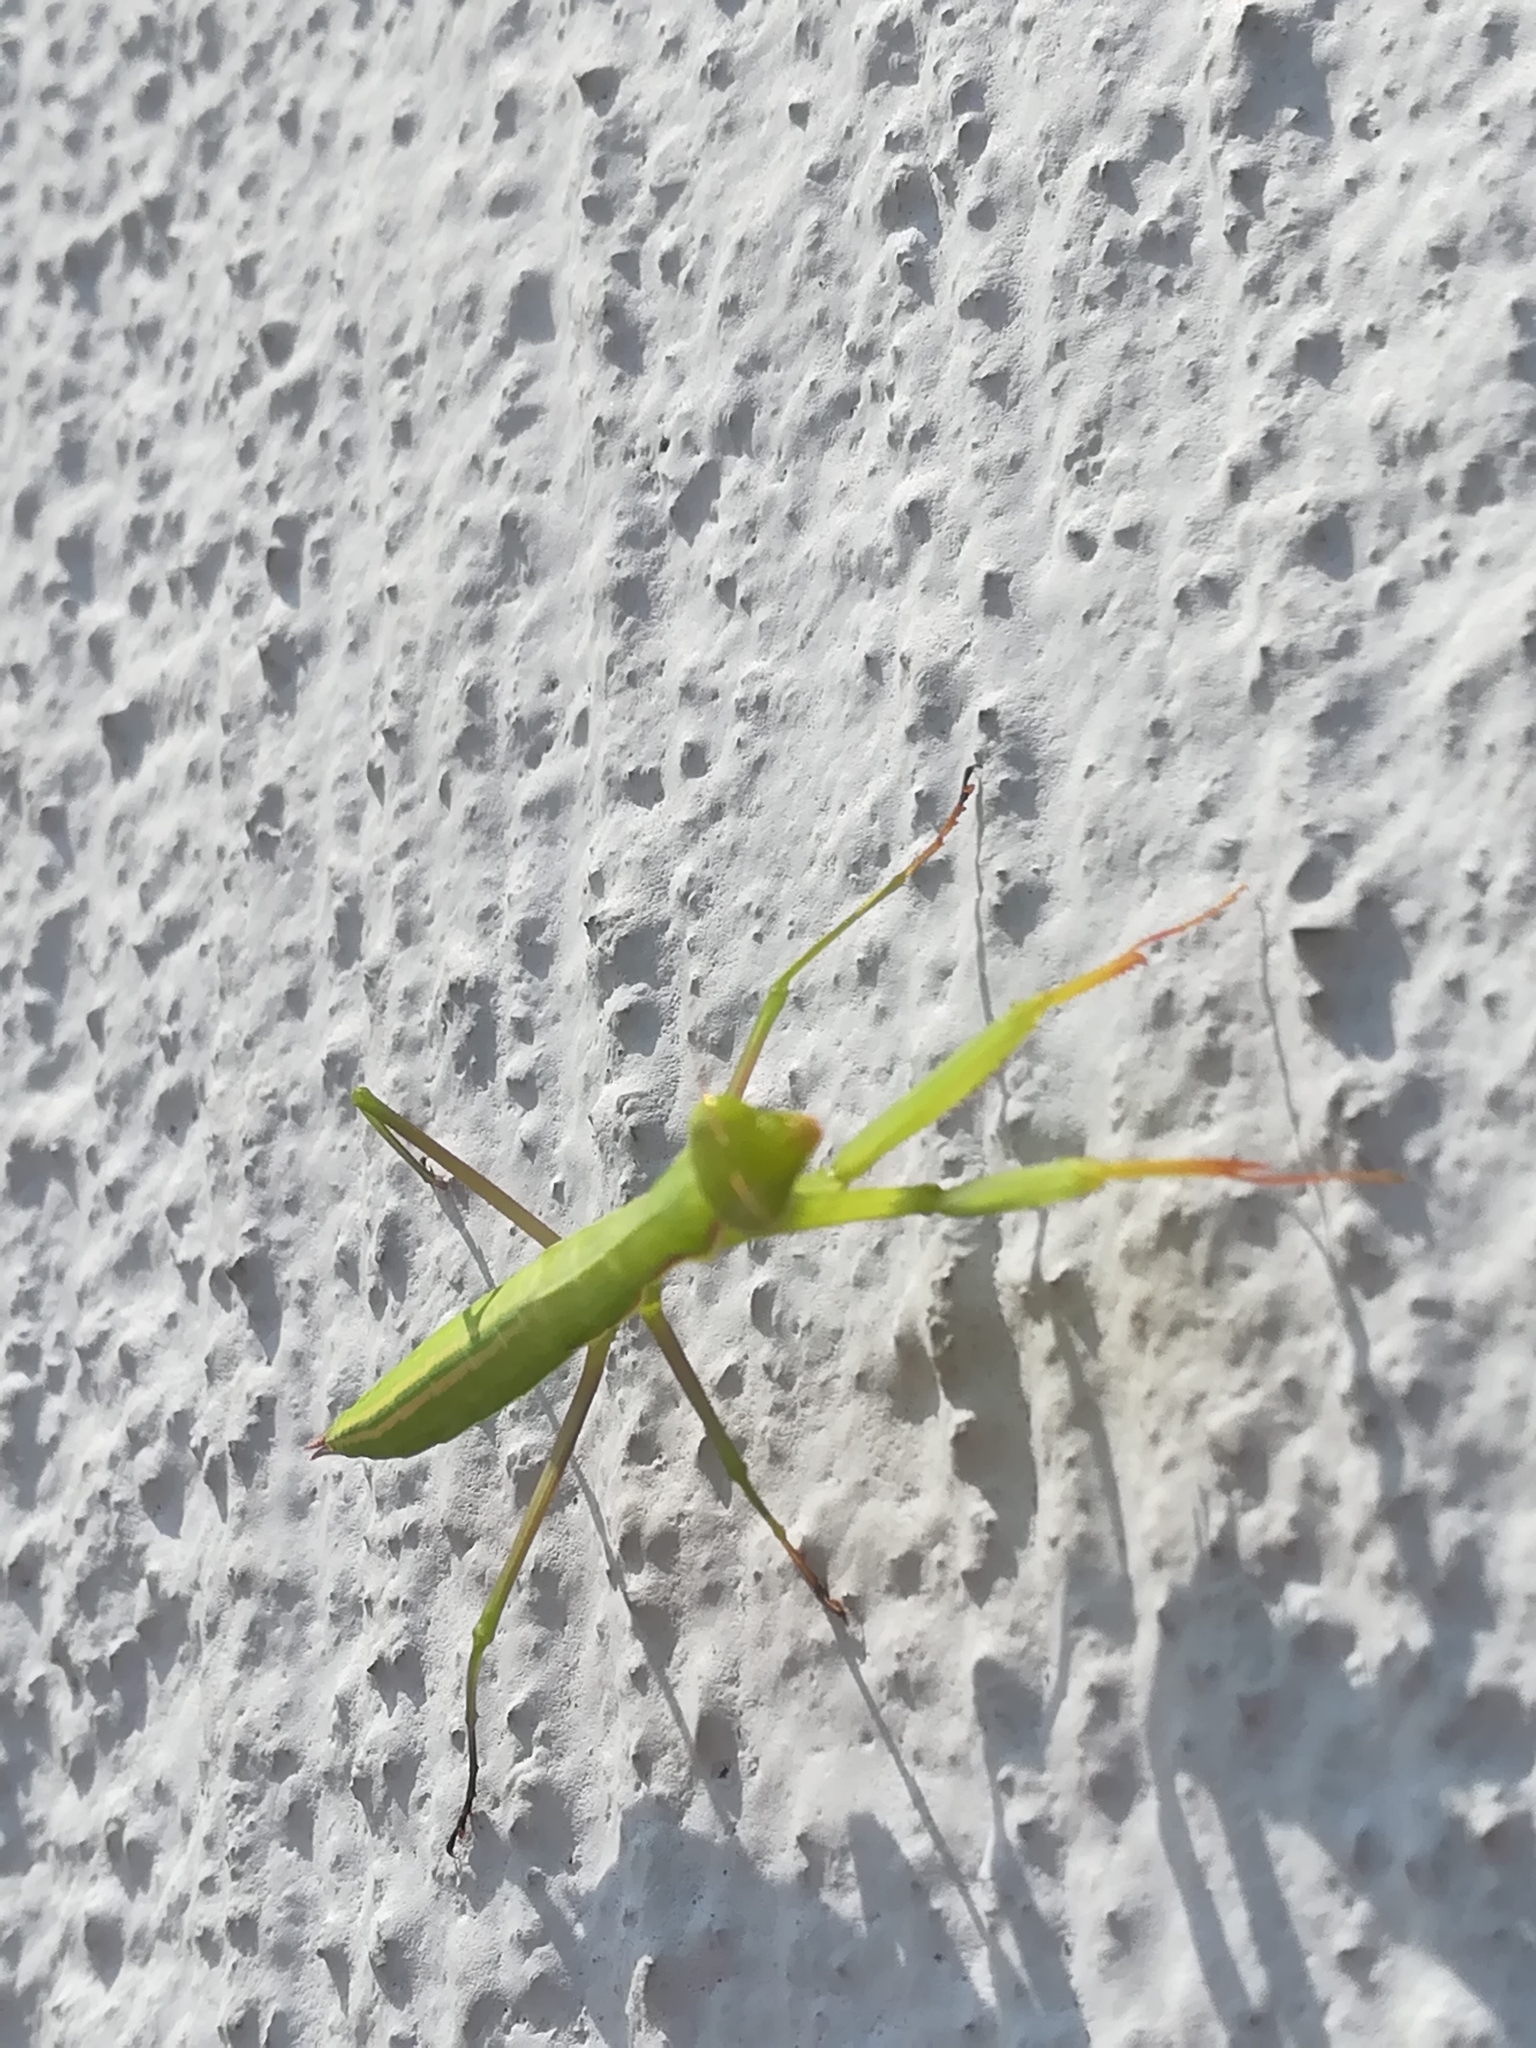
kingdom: Animalia
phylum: Arthropoda
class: Insecta
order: Mantodea
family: Mantidae
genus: Mantis
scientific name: Mantis religiosa
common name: Praying mantis
